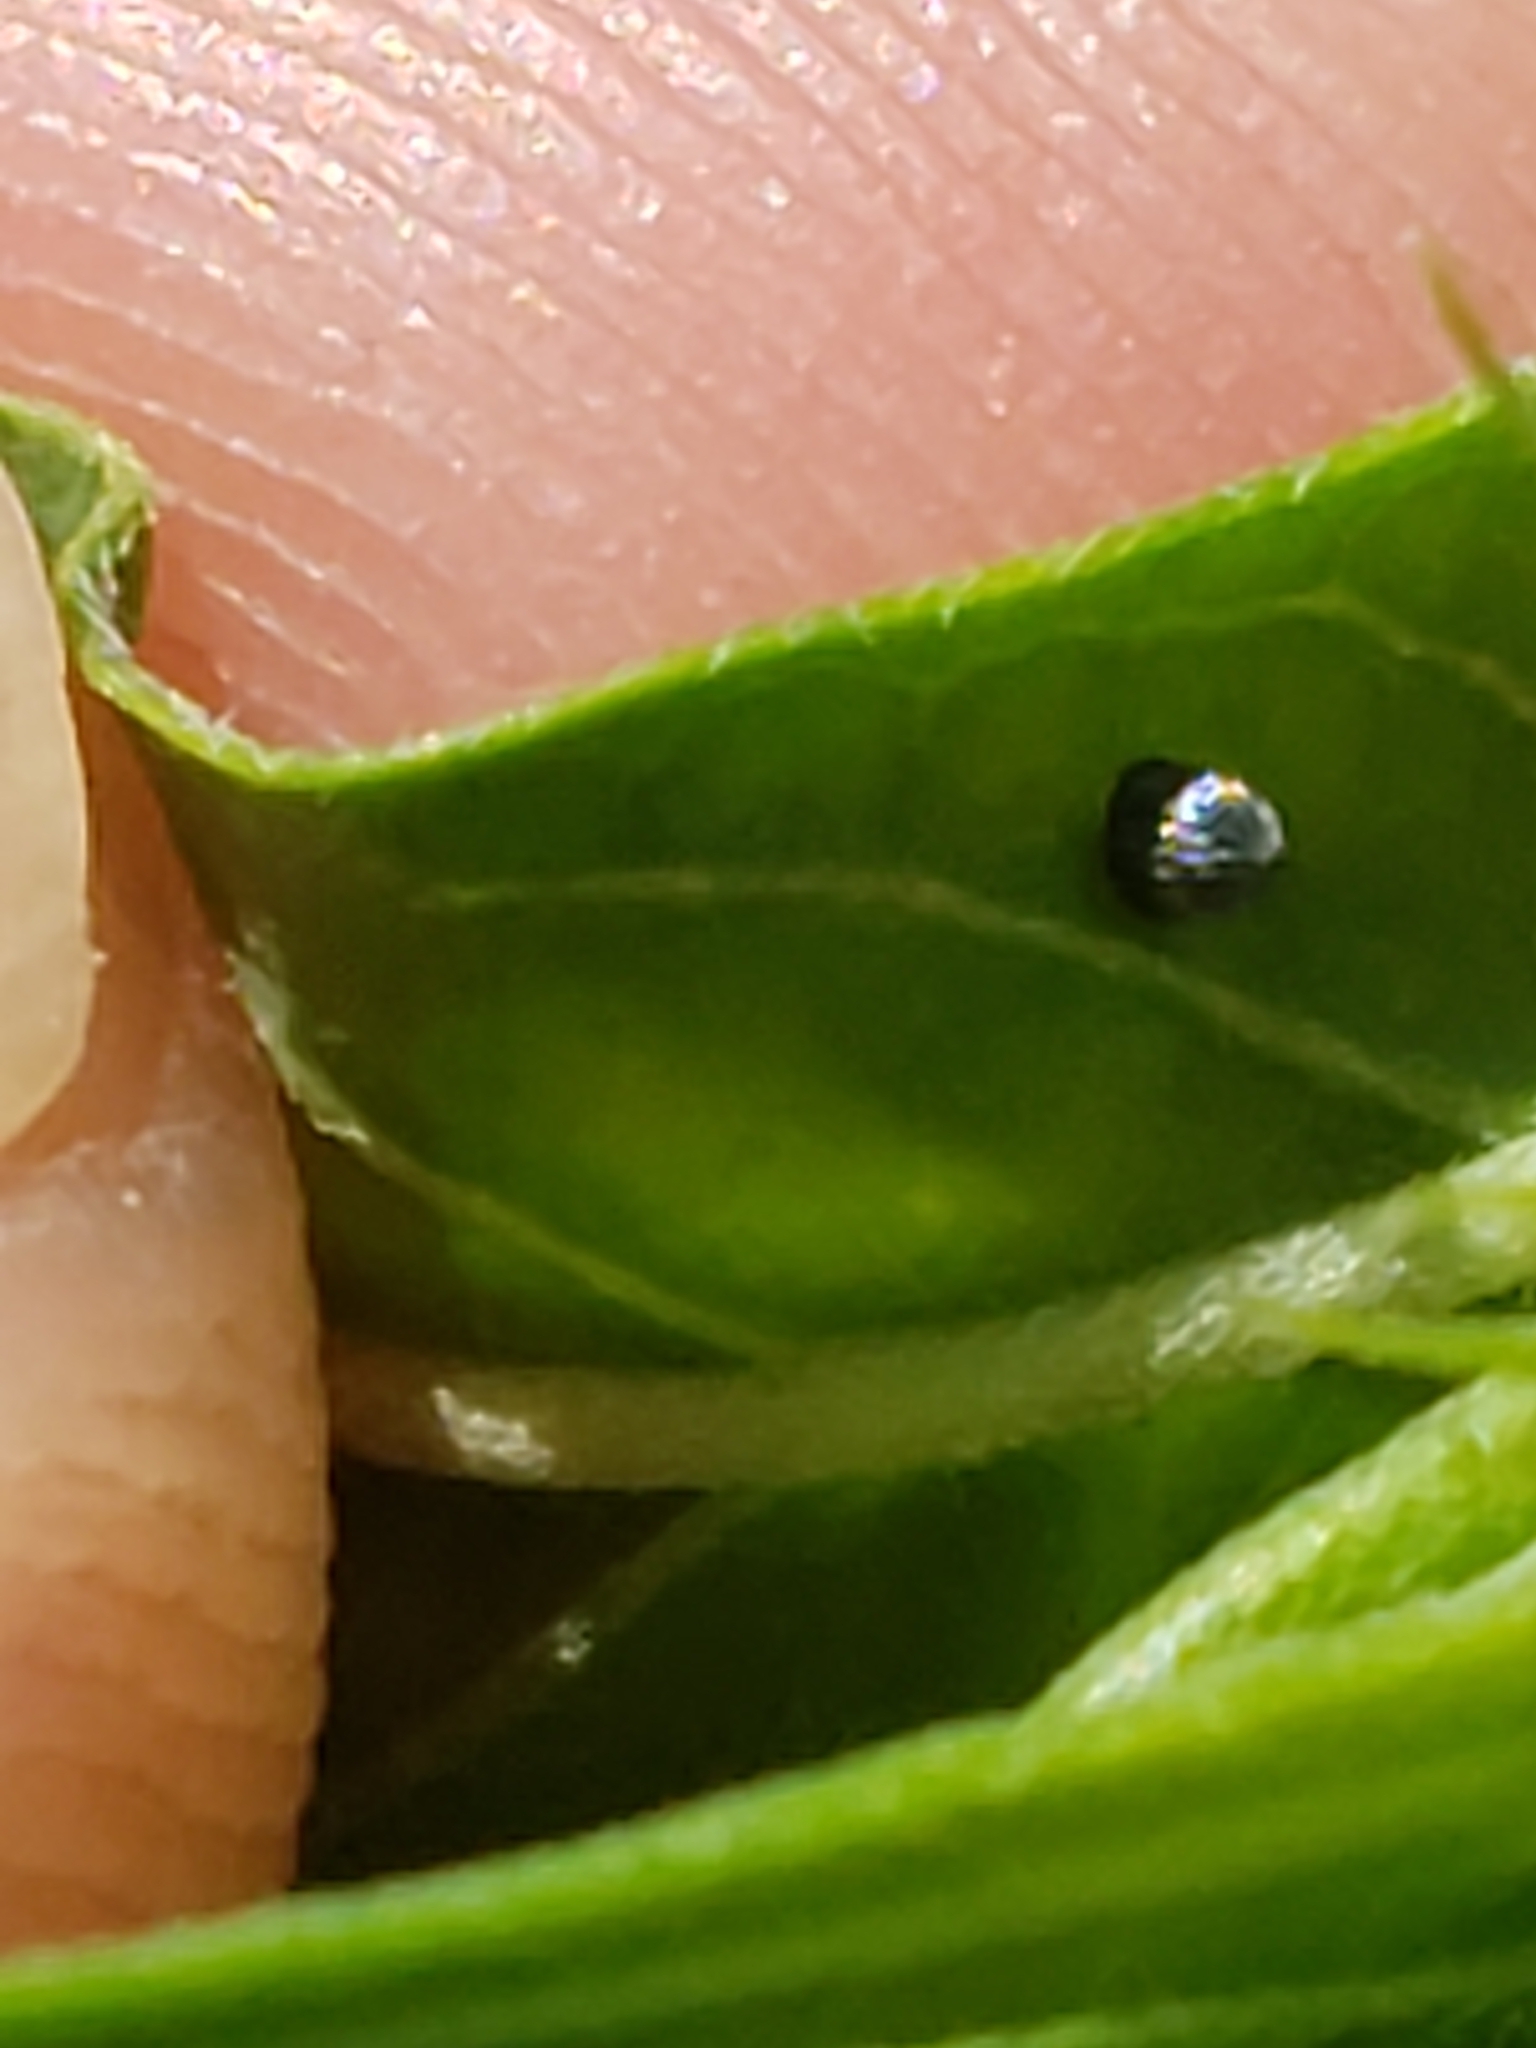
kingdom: Animalia
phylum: Arthropoda
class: Insecta
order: Lepidoptera
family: Nymphalidae
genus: Danaus
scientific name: Danaus plexippus
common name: Monarch
